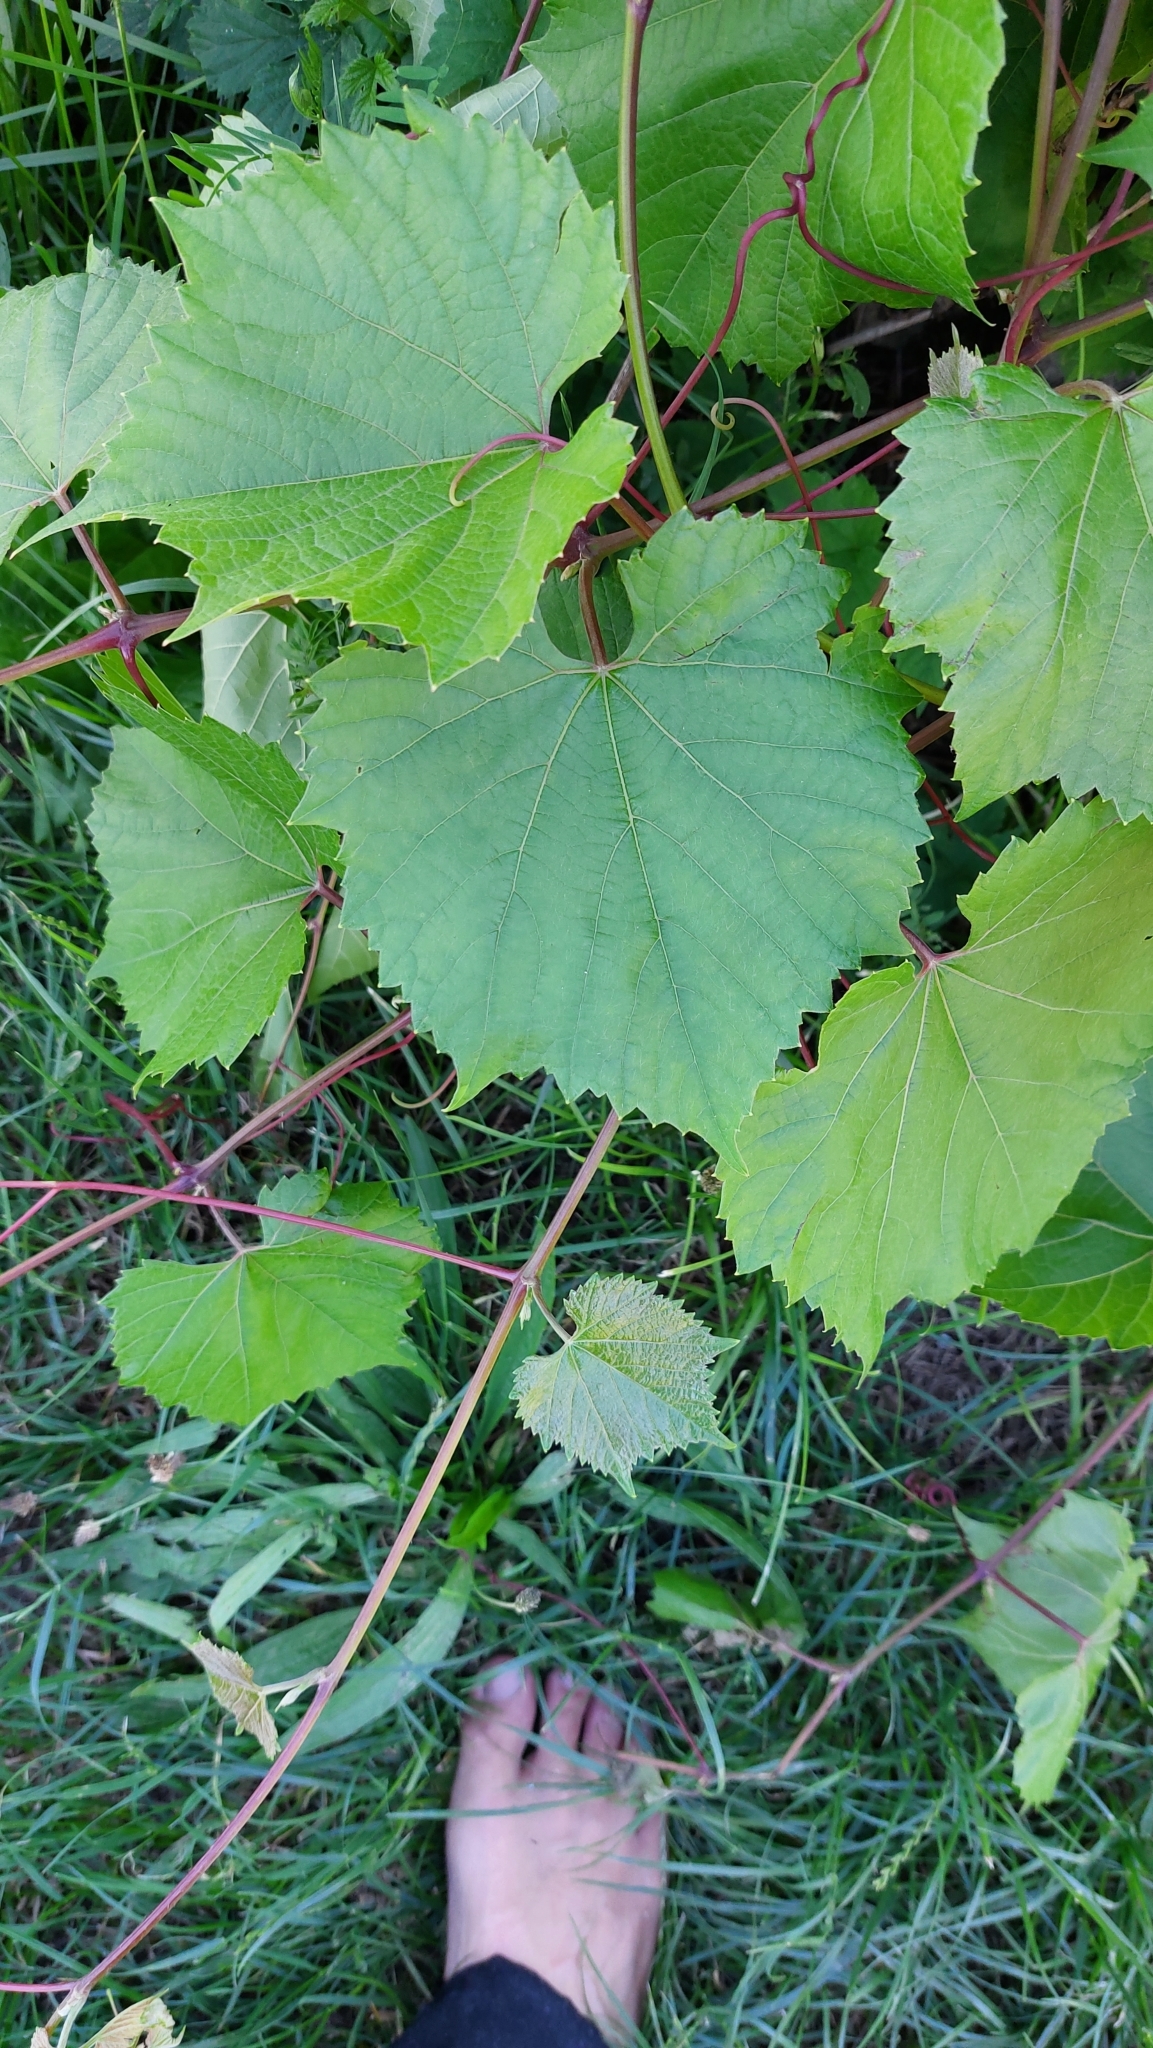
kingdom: Plantae
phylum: Tracheophyta
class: Magnoliopsida
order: Vitales
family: Vitaceae
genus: Vitis
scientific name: Vitis vinifera
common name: Grape-vine
